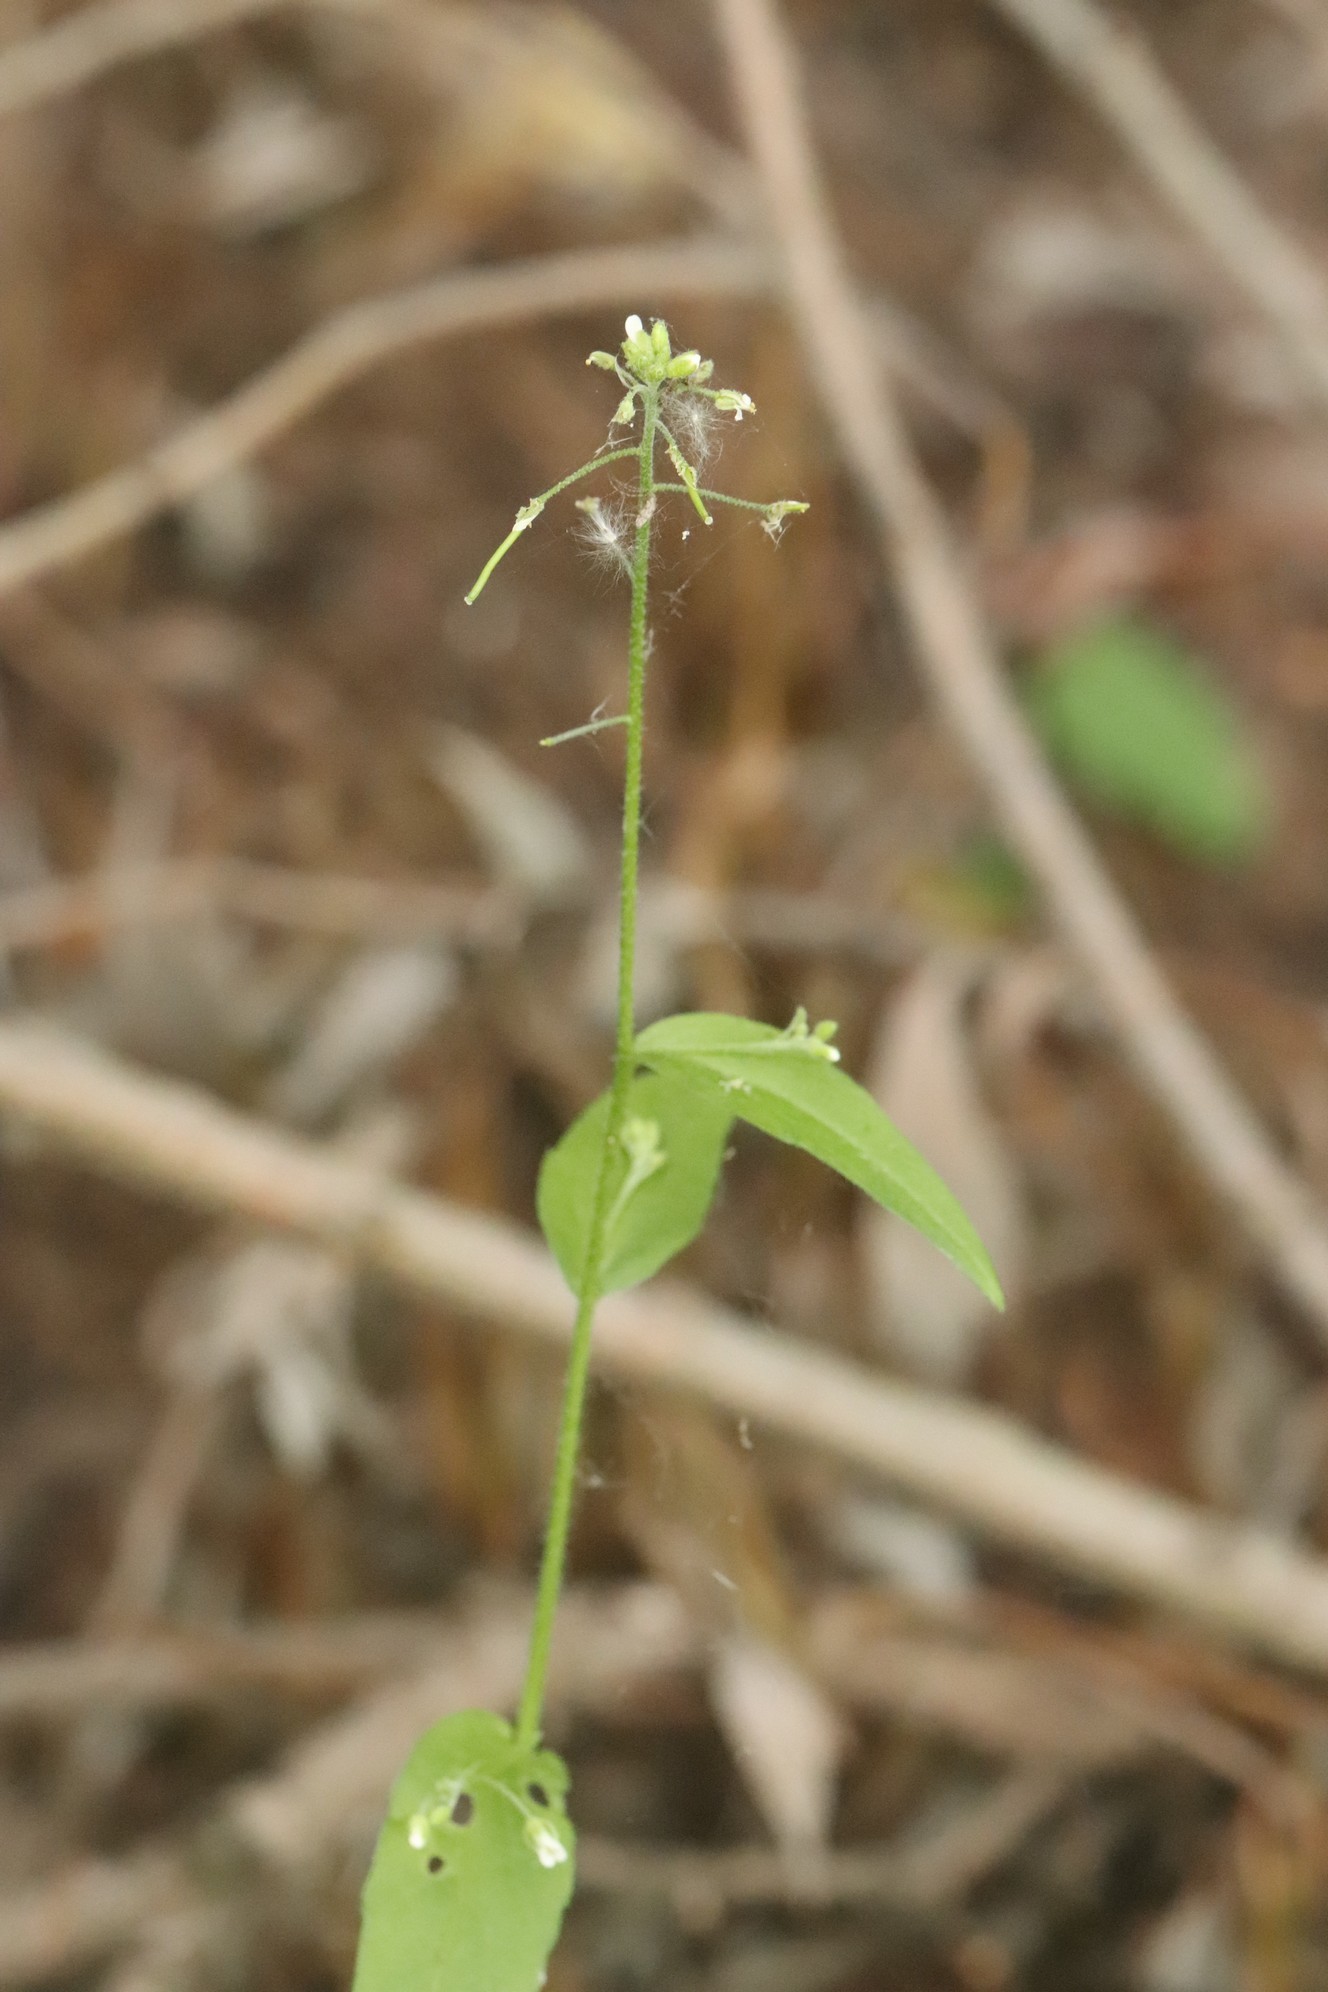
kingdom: Plantae
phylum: Tracheophyta
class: Magnoliopsida
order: Brassicales
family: Brassicaceae
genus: Catolobus
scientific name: Catolobus pendulus
